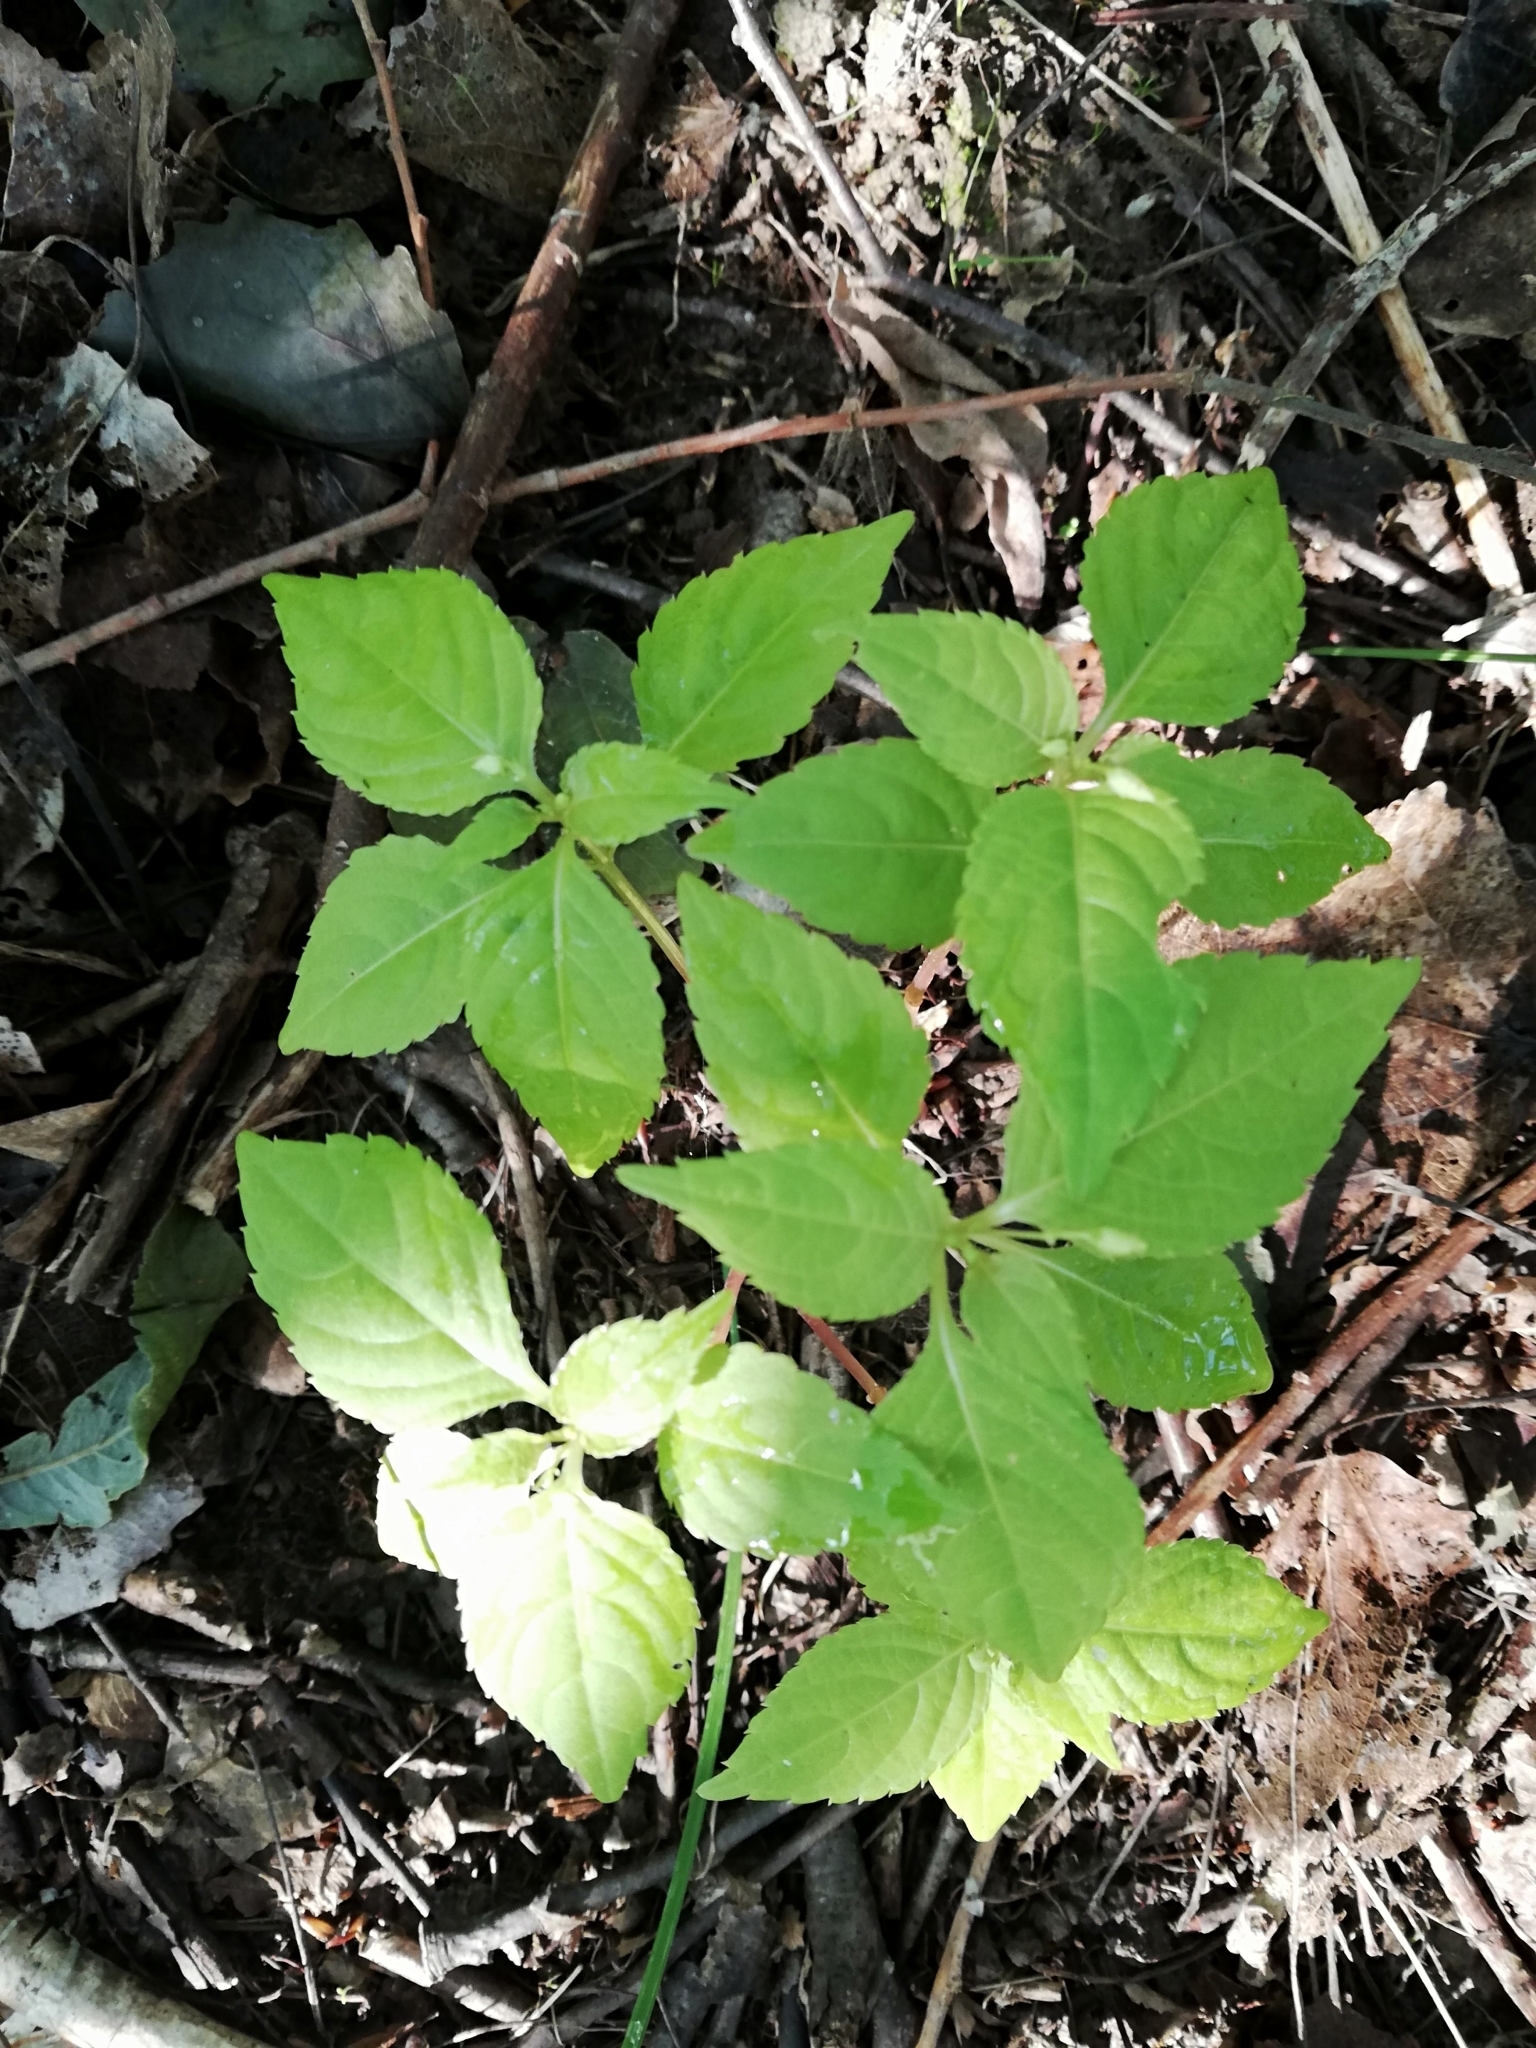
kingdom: Plantae
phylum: Tracheophyta
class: Magnoliopsida
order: Ericales
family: Balsaminaceae
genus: Impatiens
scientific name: Impatiens parviflora
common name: Small balsam
